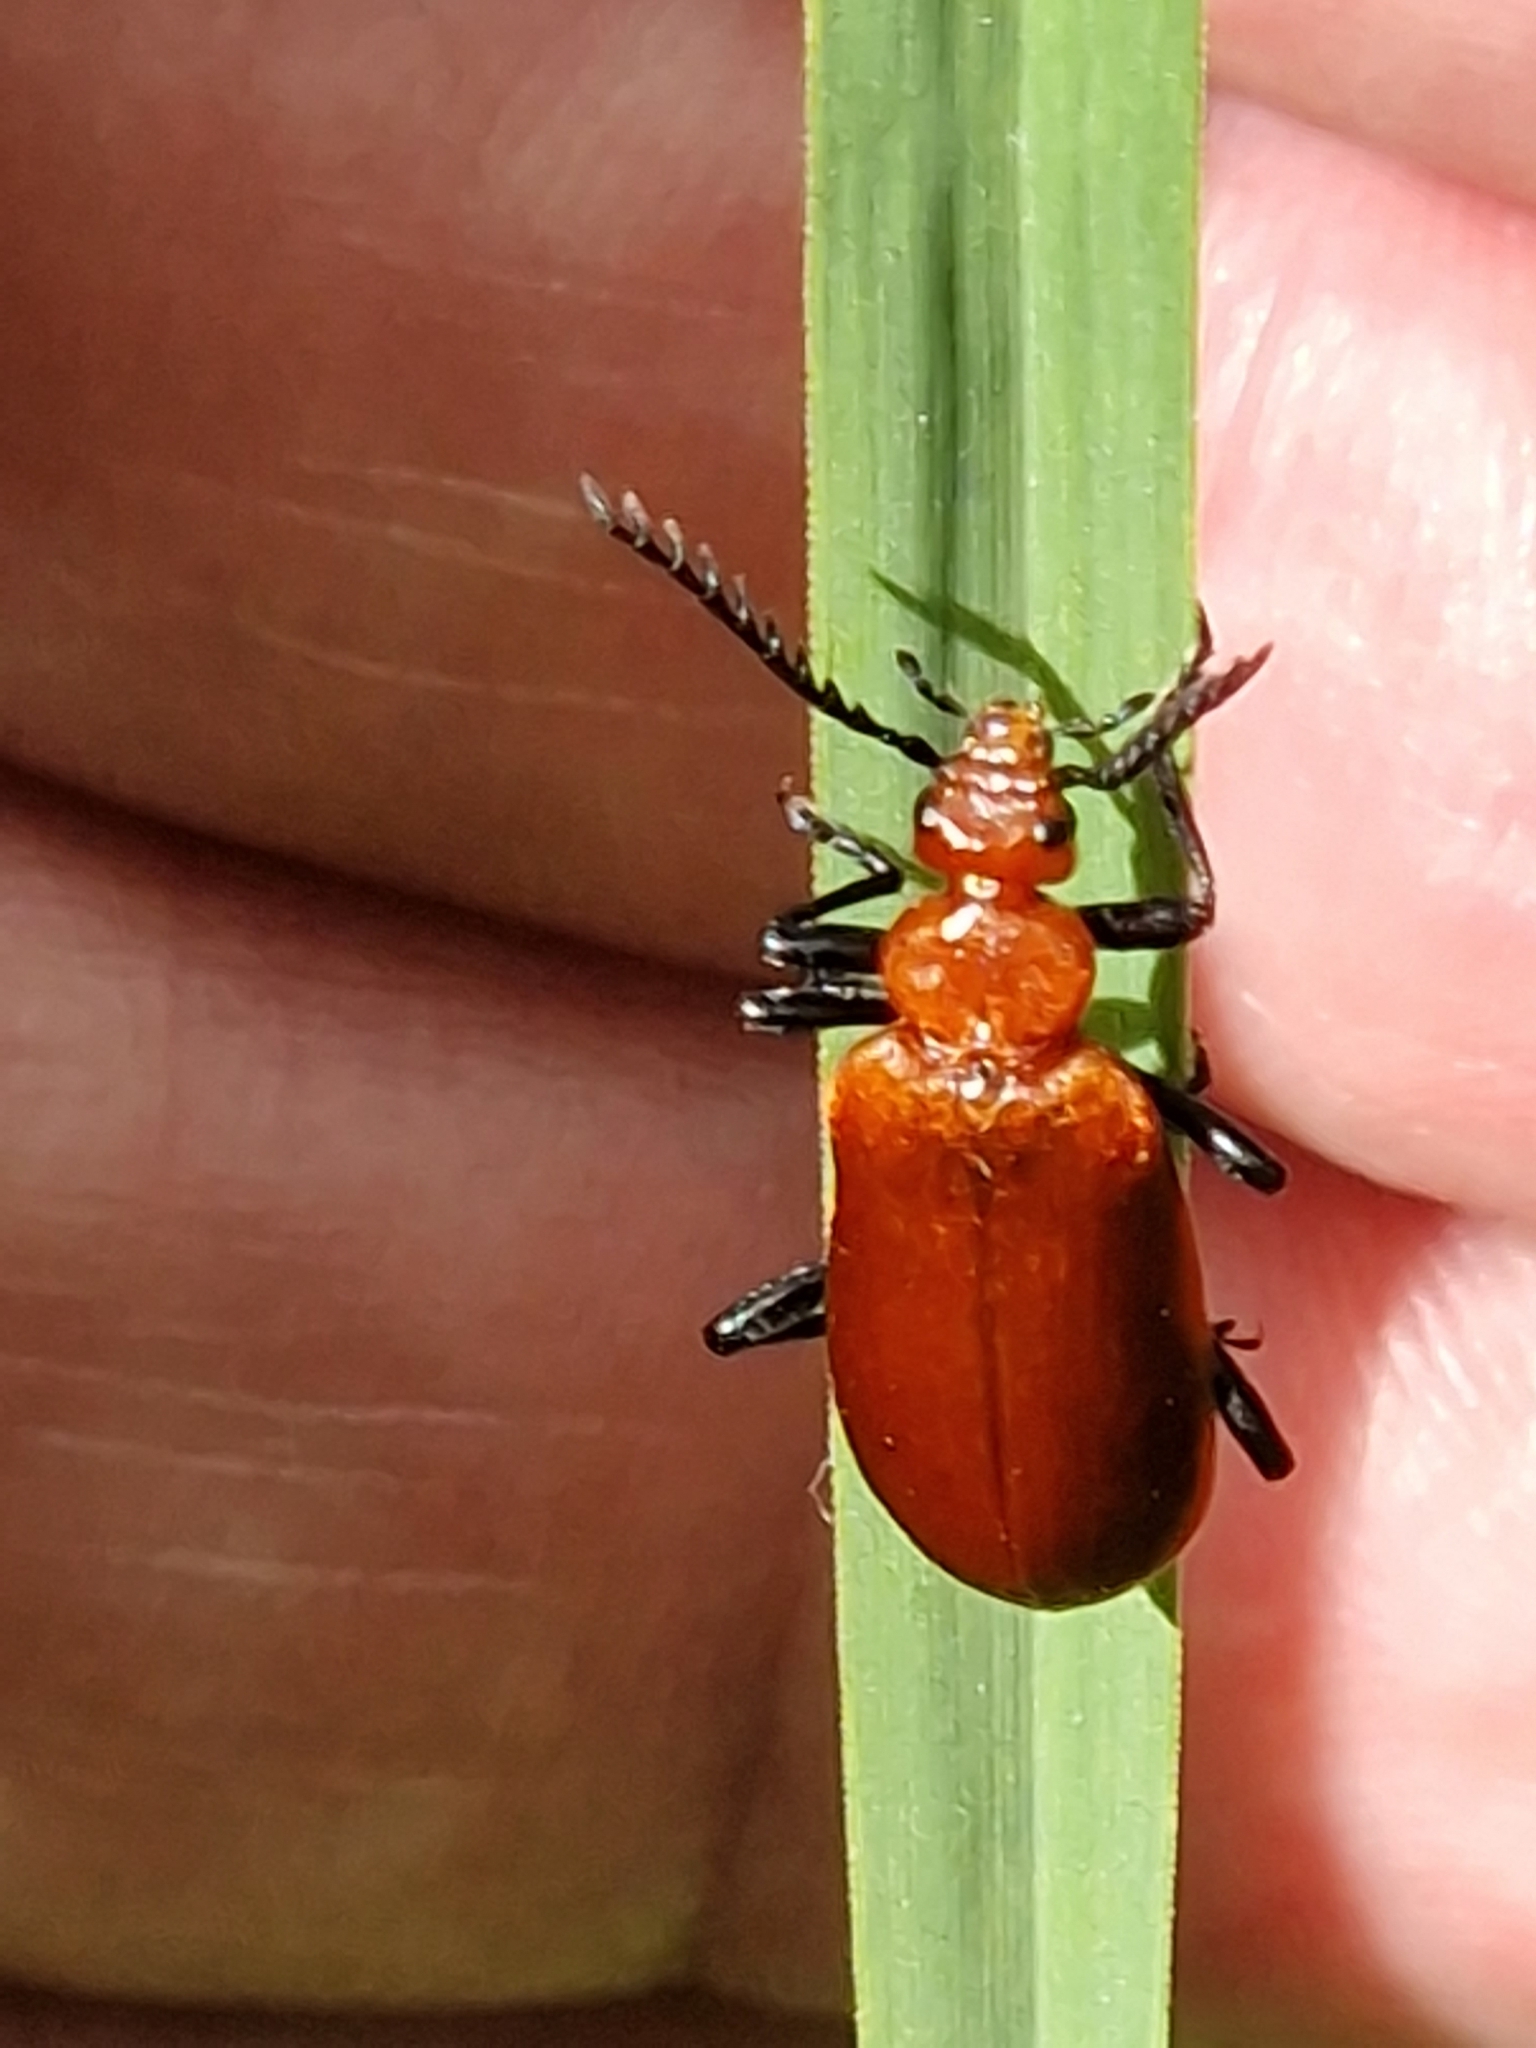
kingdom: Animalia
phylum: Arthropoda
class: Insecta
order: Coleoptera
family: Pyrochroidae
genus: Pyrochroa
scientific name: Pyrochroa serraticornis
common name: Red-headed cardinal beetle
